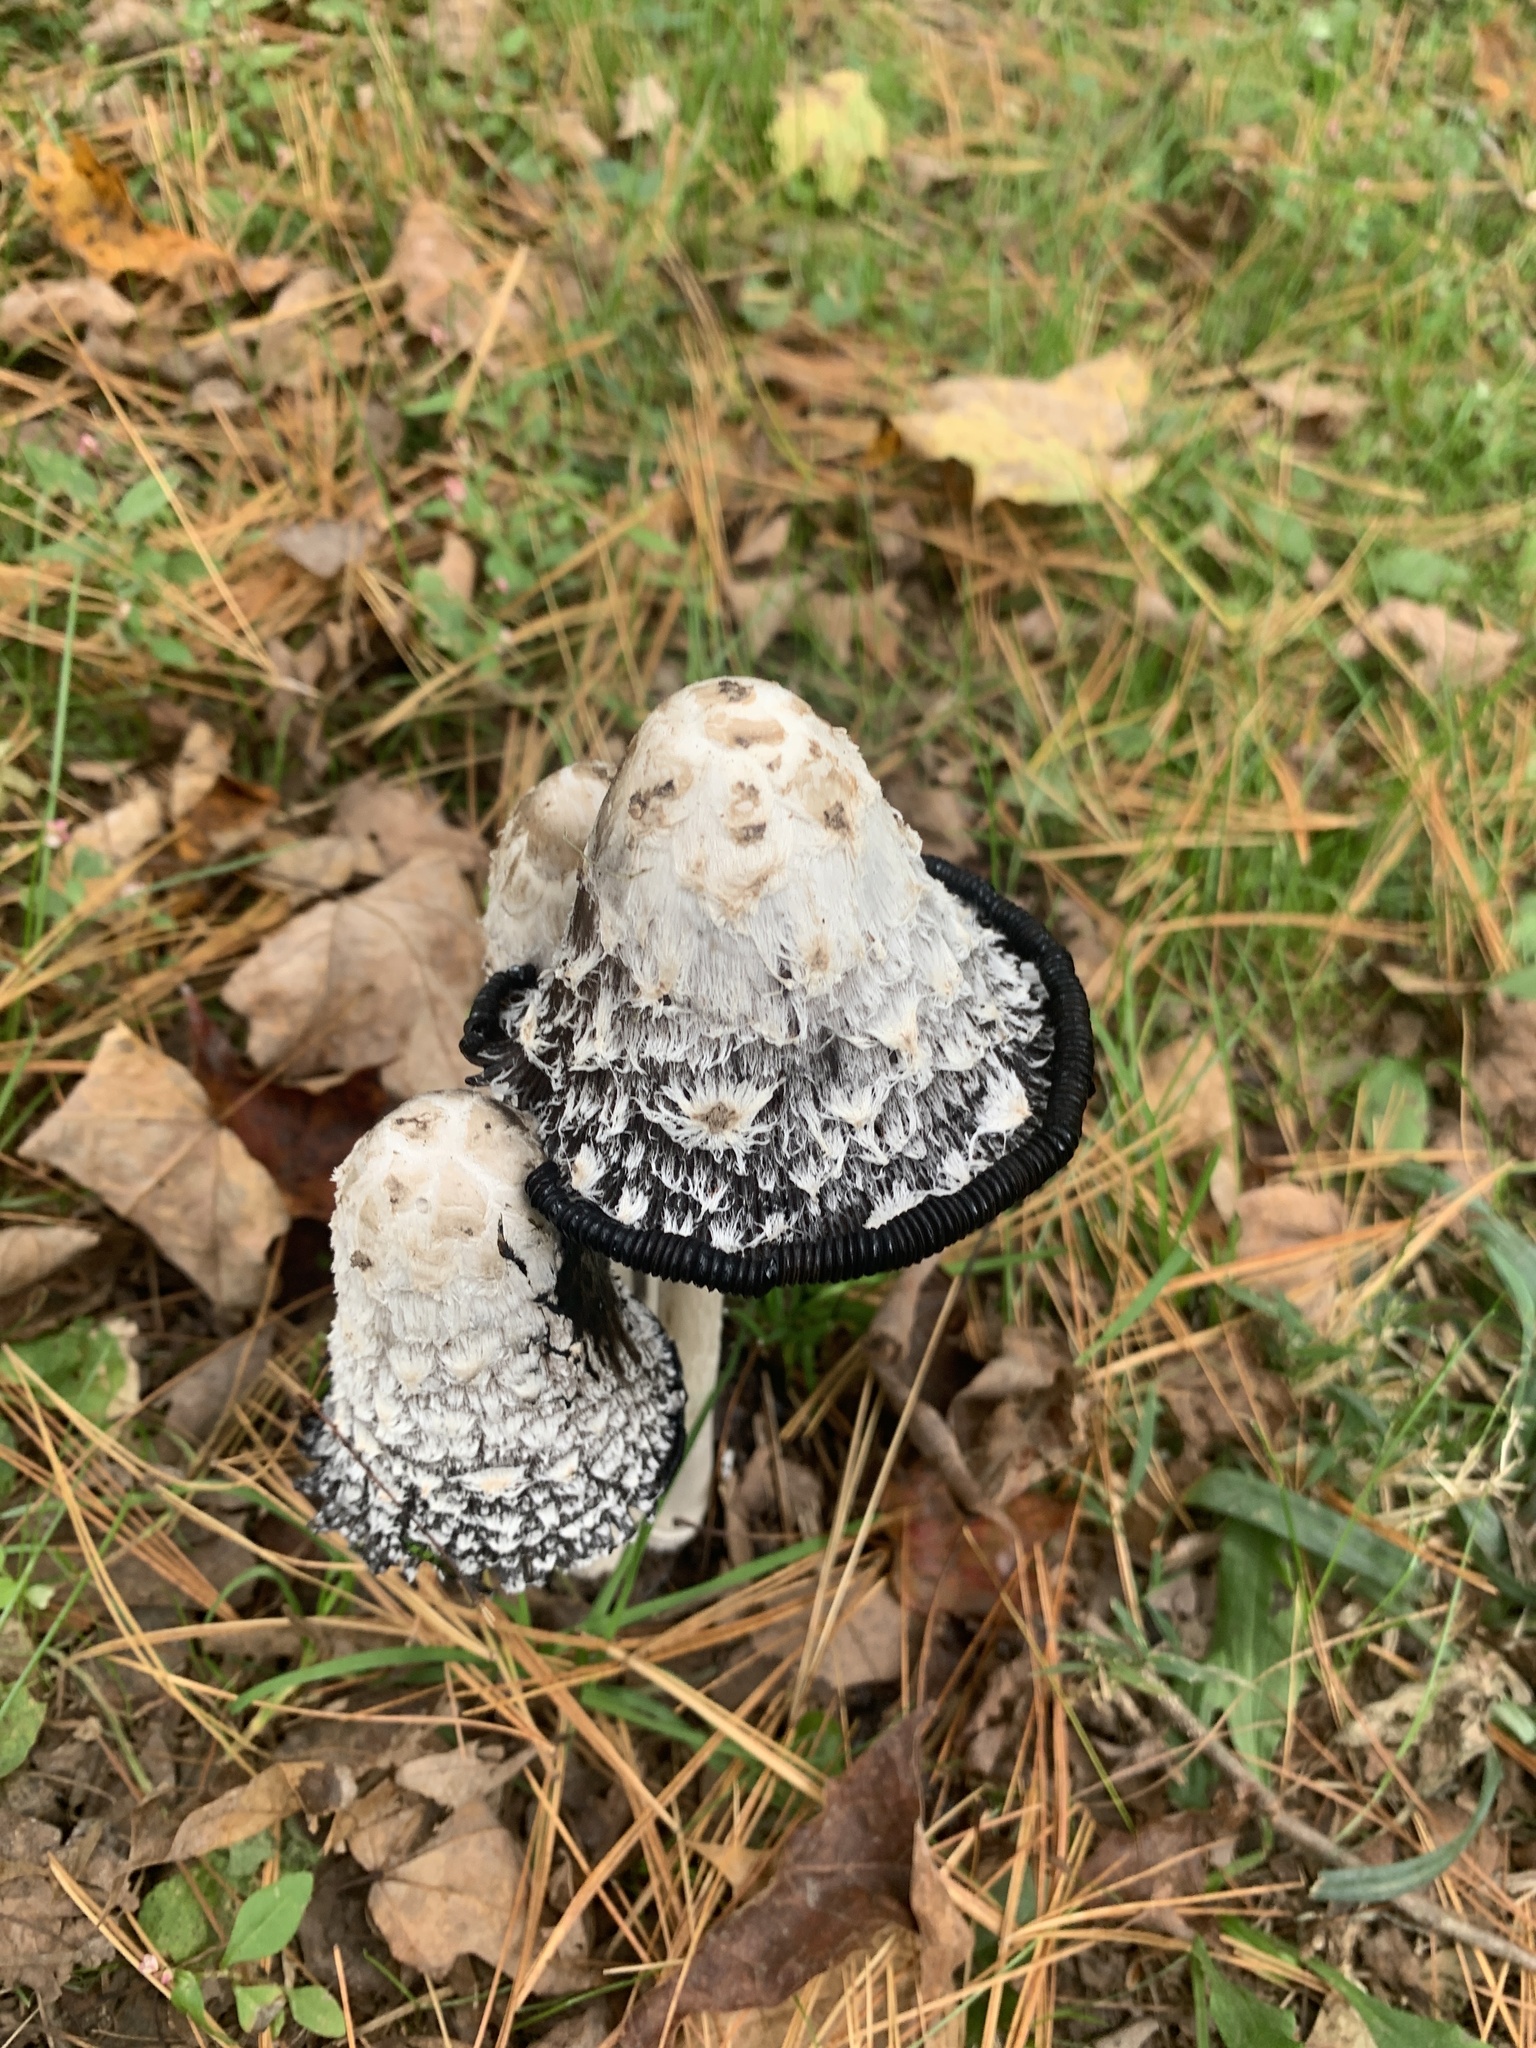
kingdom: Fungi
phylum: Basidiomycota
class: Agaricomycetes
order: Agaricales
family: Agaricaceae
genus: Coprinus
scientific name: Coprinus comatus
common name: Lawyer's wig
